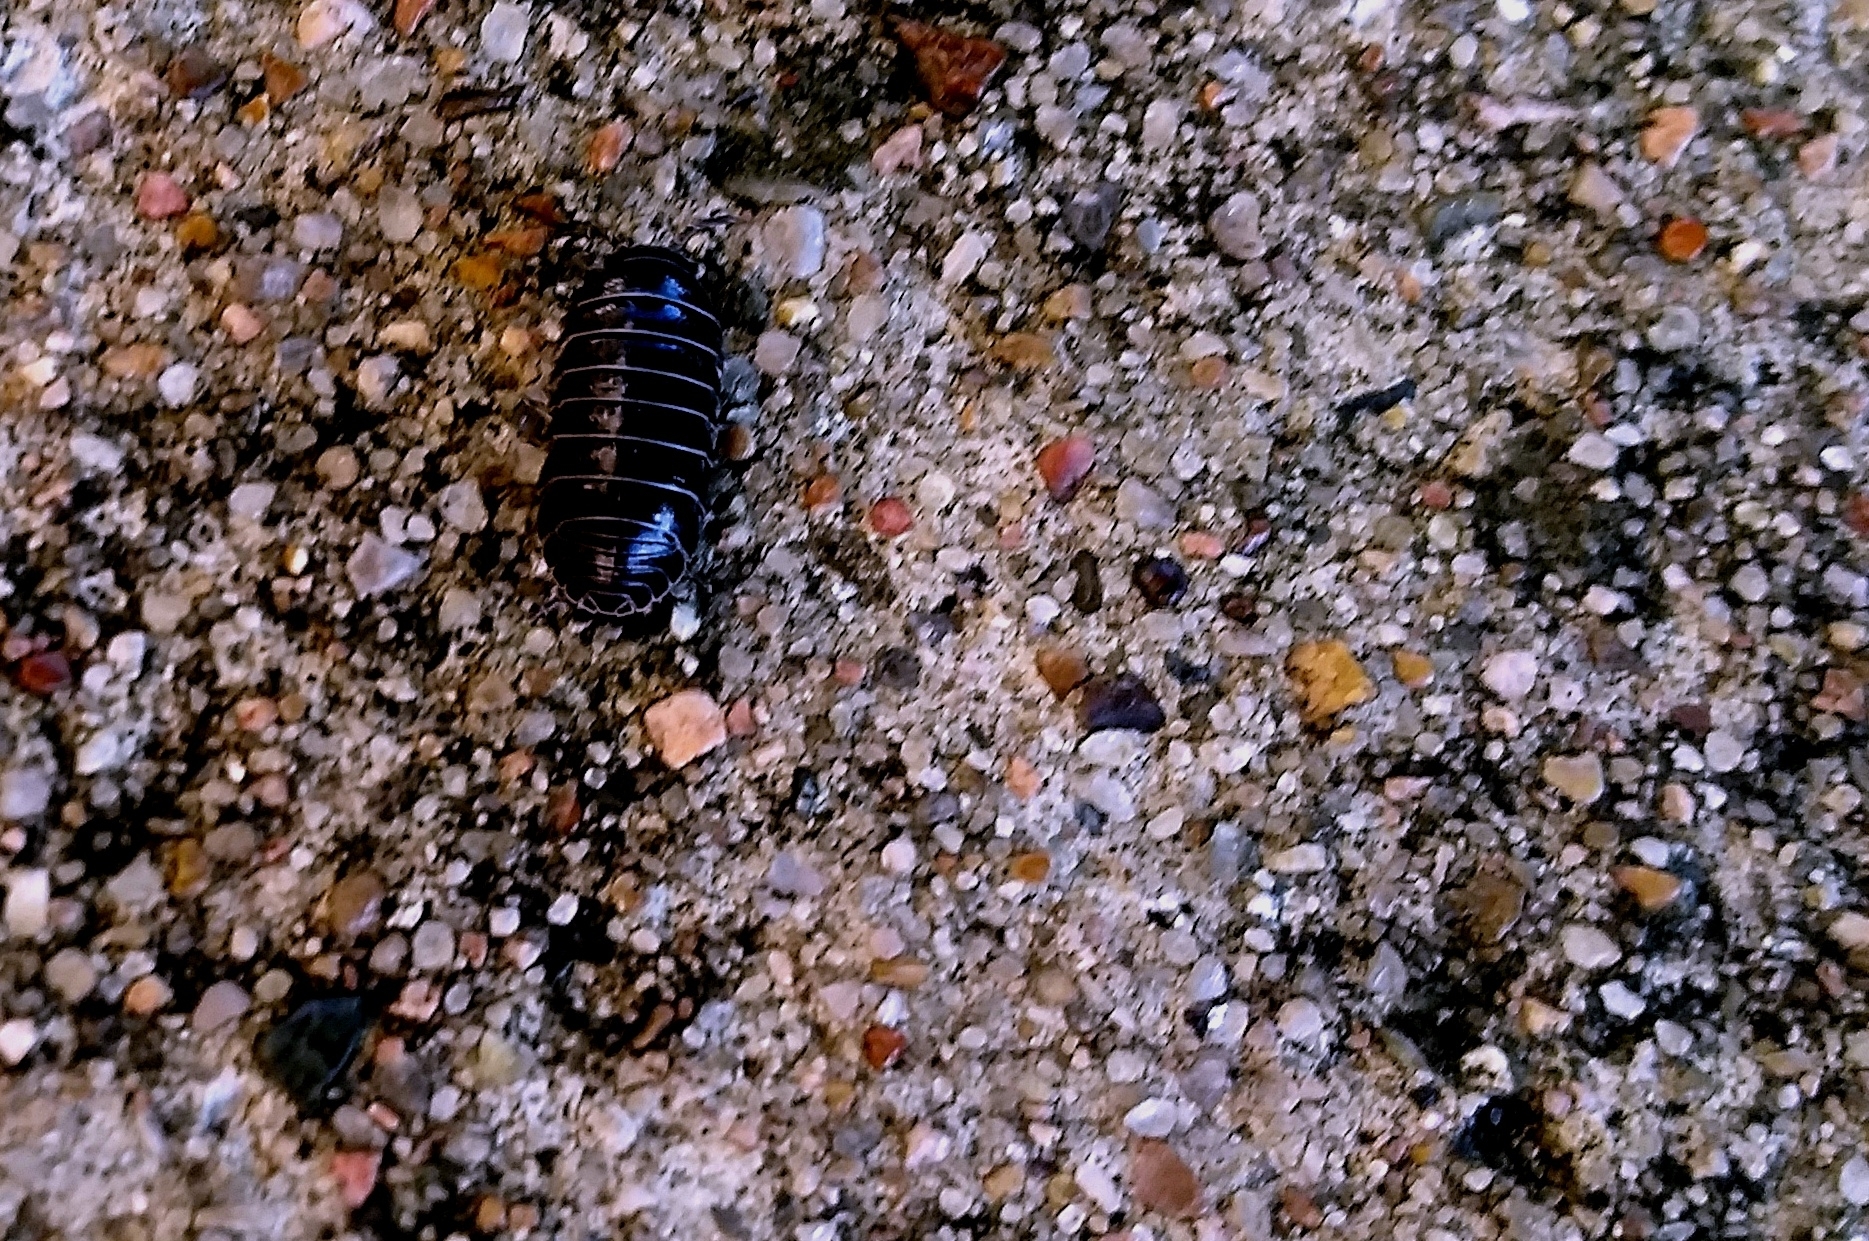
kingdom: Animalia
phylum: Arthropoda
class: Malacostraca
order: Isopoda
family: Armadillidiidae
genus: Armadillidium
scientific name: Armadillidium vulgare
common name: Common pill woodlouse
